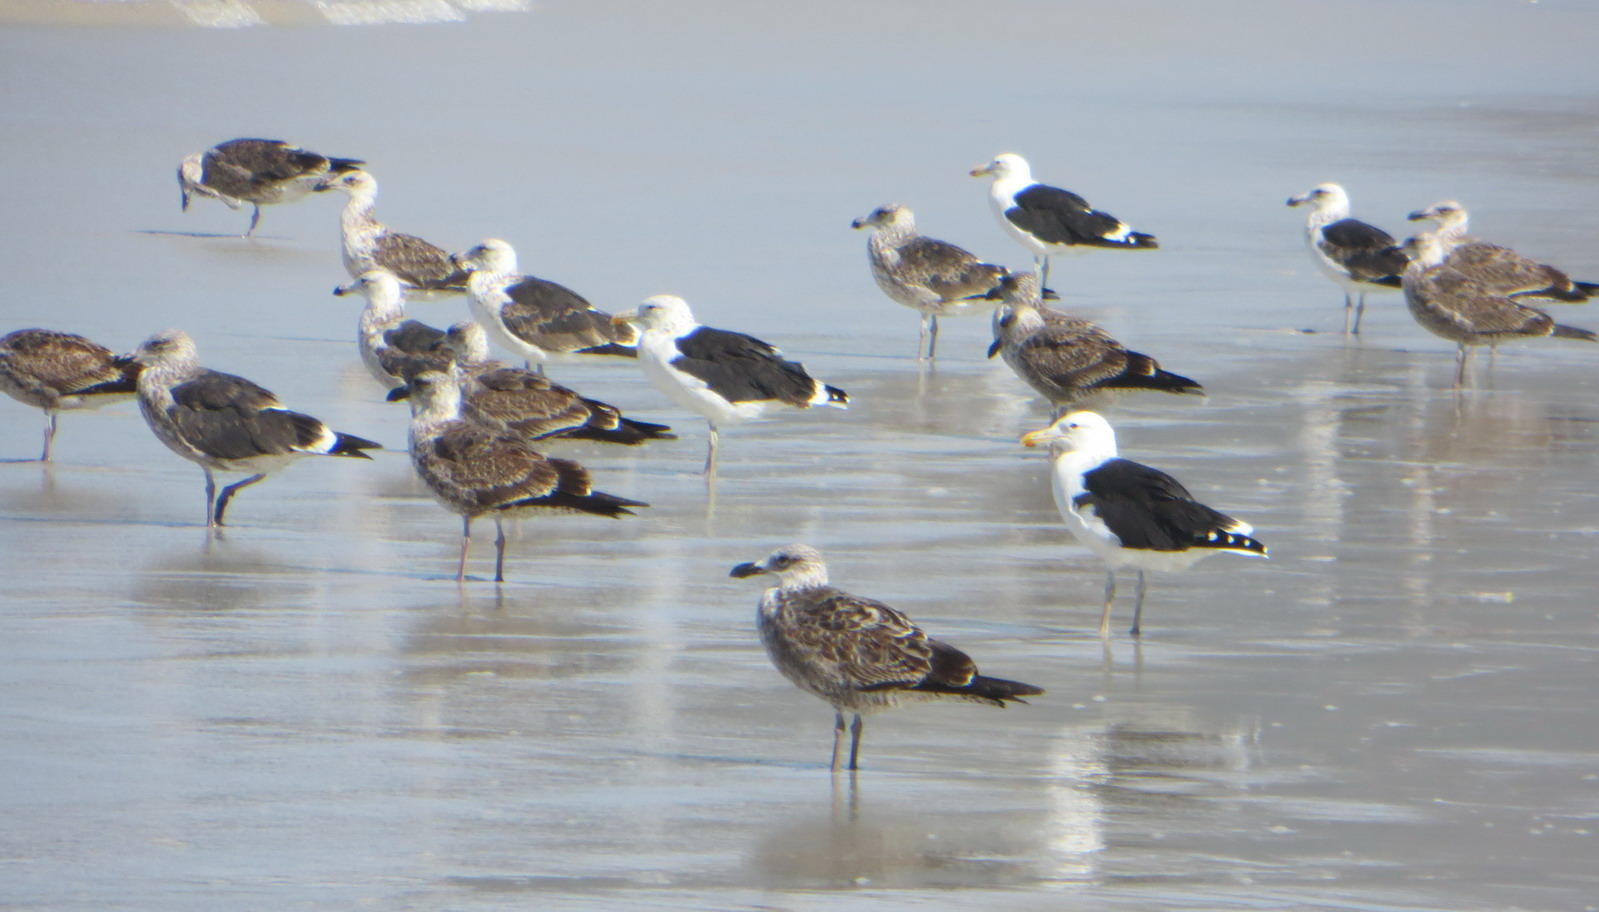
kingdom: Animalia
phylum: Chordata
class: Aves
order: Charadriiformes
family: Laridae
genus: Larus
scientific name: Larus dominicanus
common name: Kelp gull
